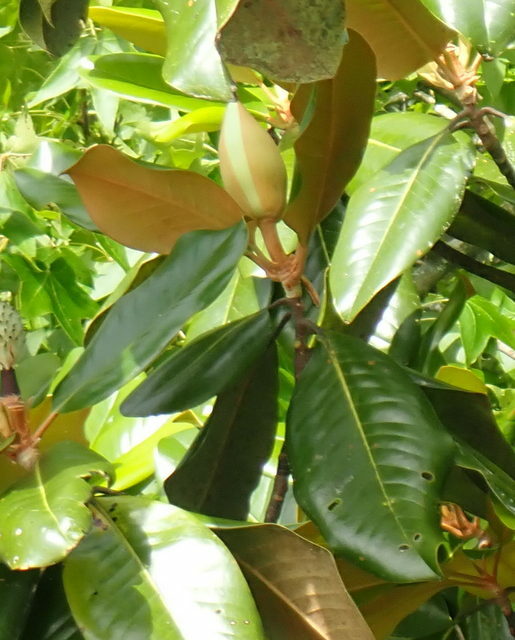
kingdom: Plantae
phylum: Tracheophyta
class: Magnoliopsida
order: Magnoliales
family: Magnoliaceae
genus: Magnolia
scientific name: Magnolia grandiflora
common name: Southern magnolia
